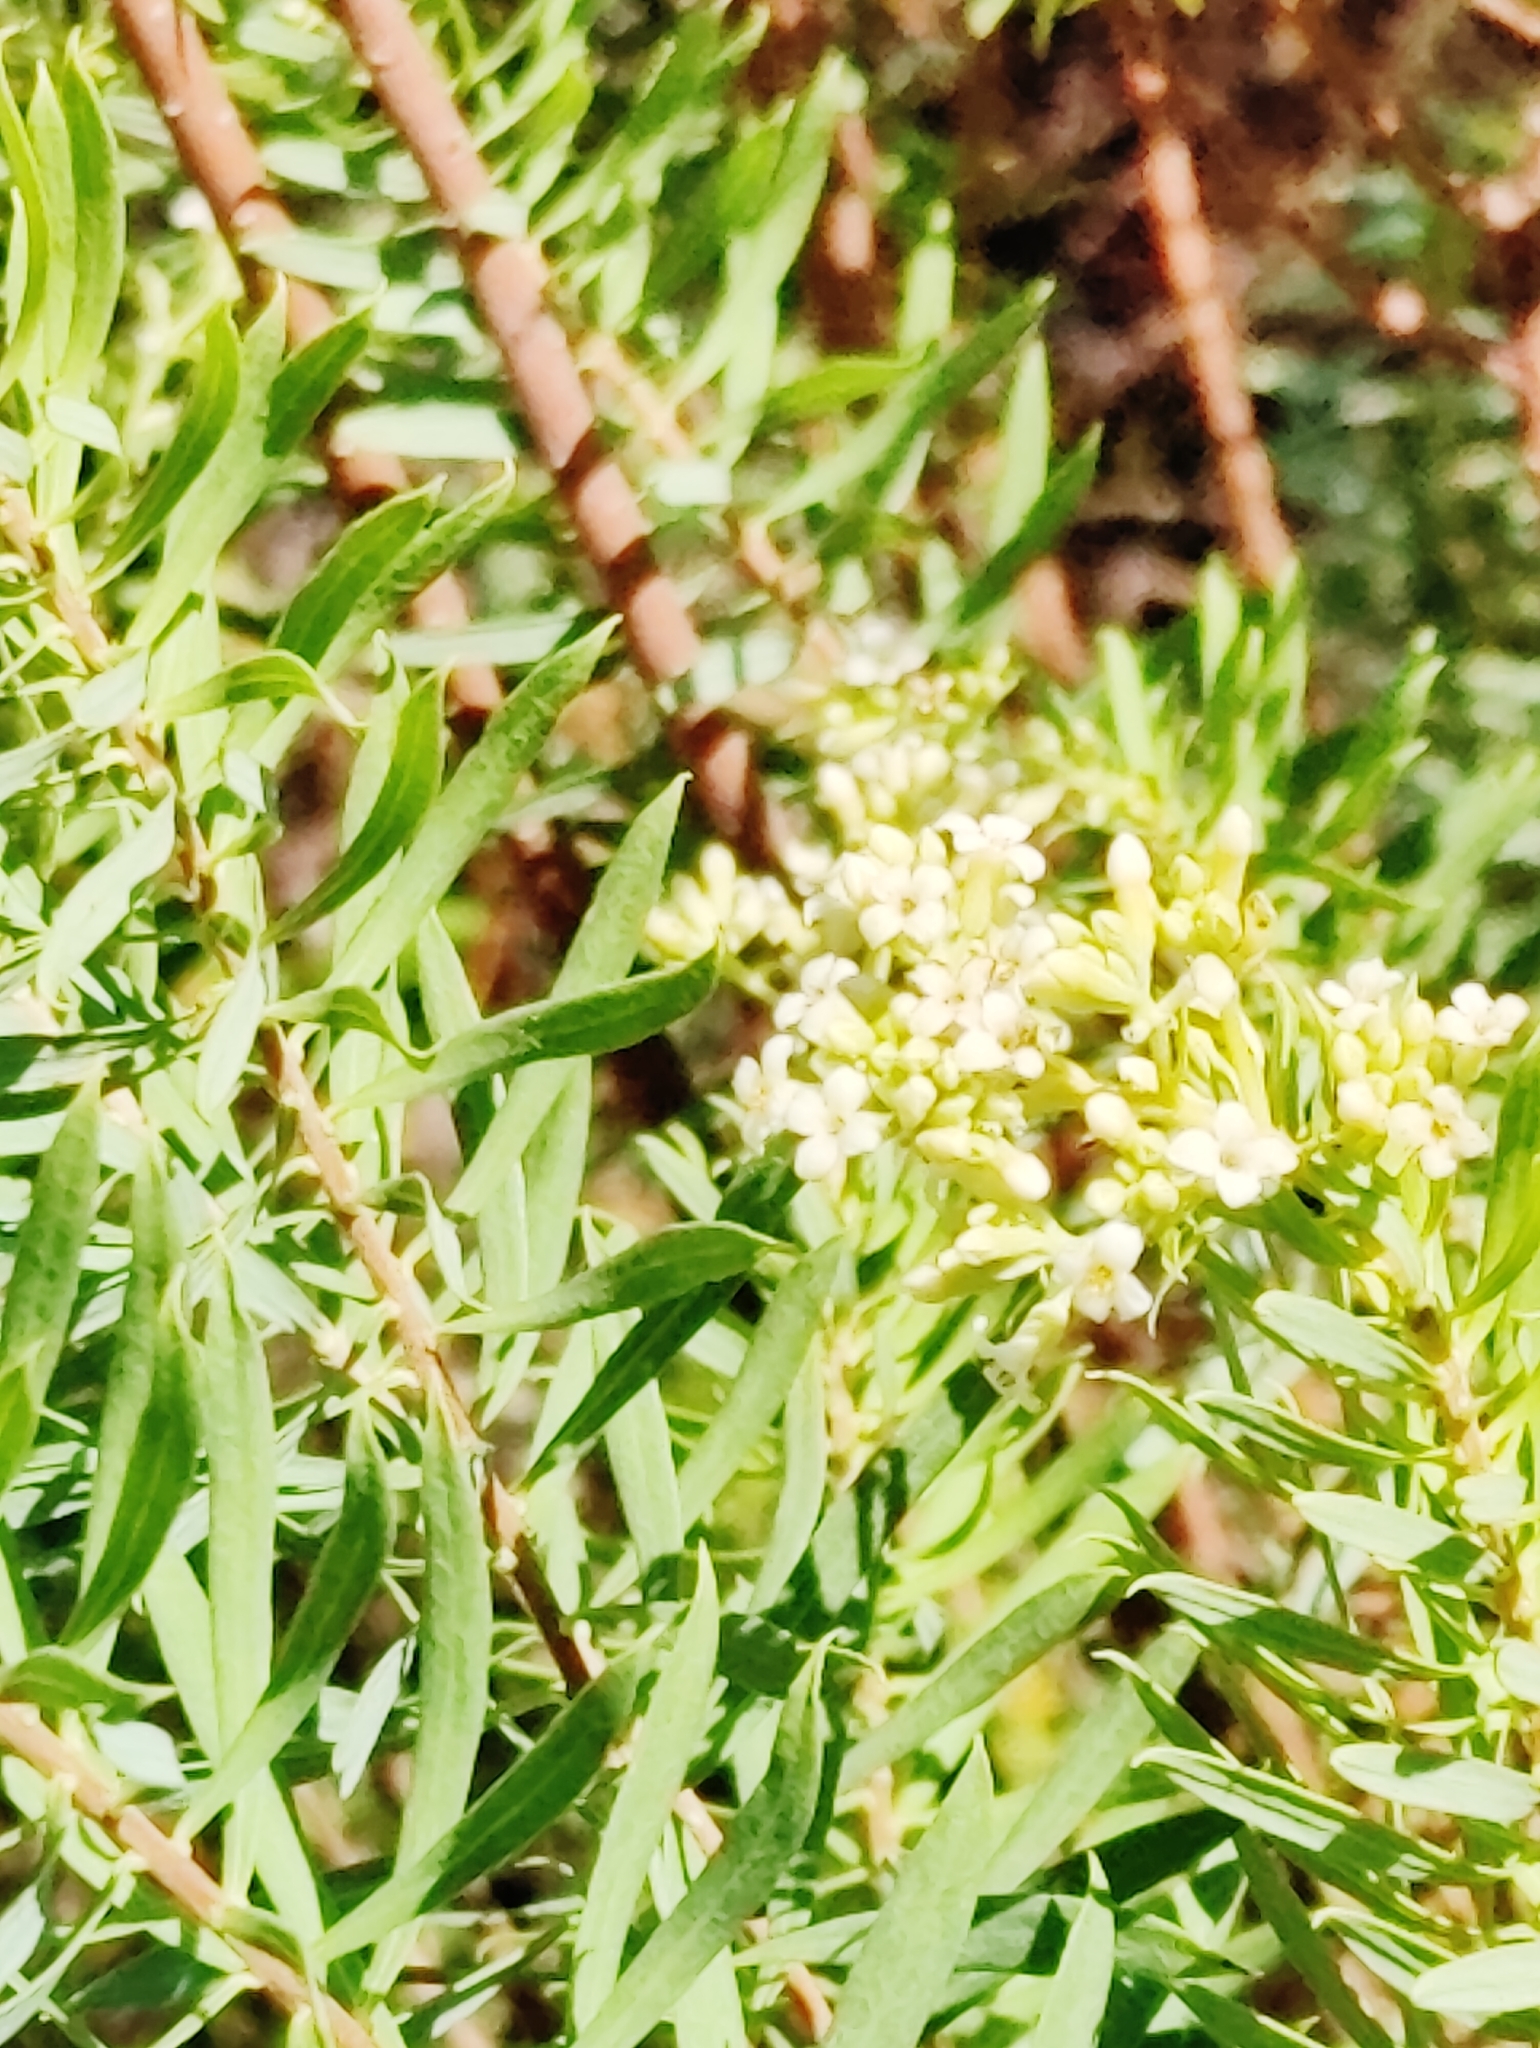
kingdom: Plantae
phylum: Tracheophyta
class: Magnoliopsida
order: Malvales
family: Thymelaeaceae
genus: Daphne
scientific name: Daphne gnidium
